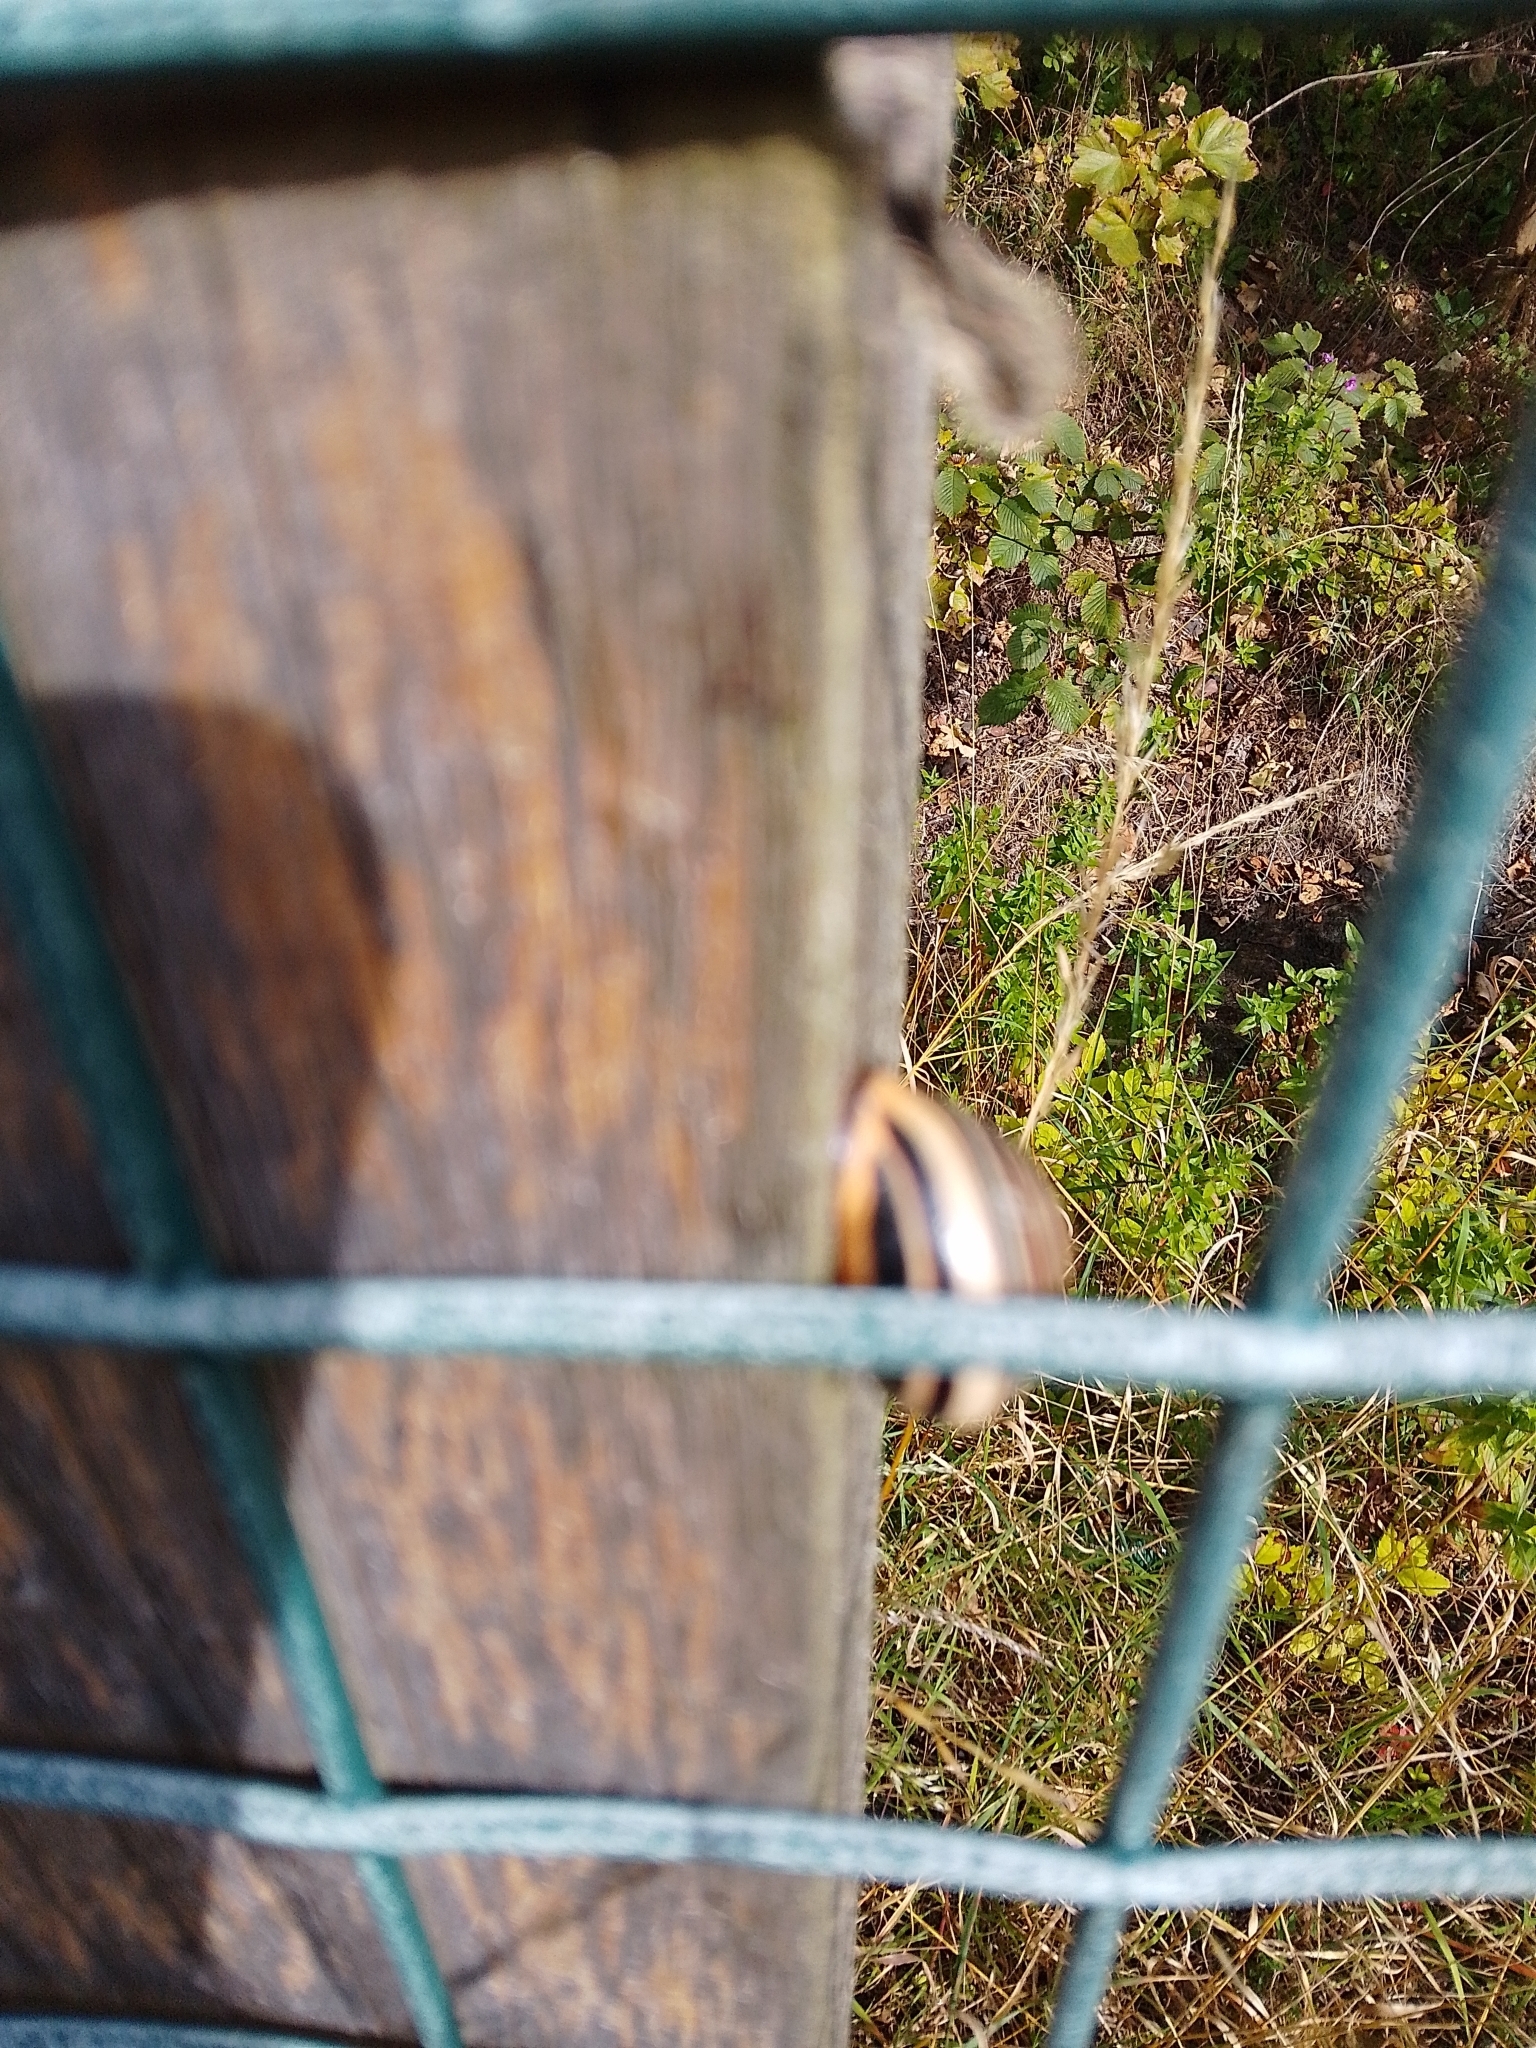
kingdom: Animalia
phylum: Mollusca
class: Gastropoda
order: Stylommatophora
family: Helicidae
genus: Cepaea
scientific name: Cepaea nemoralis
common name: Grovesnail
